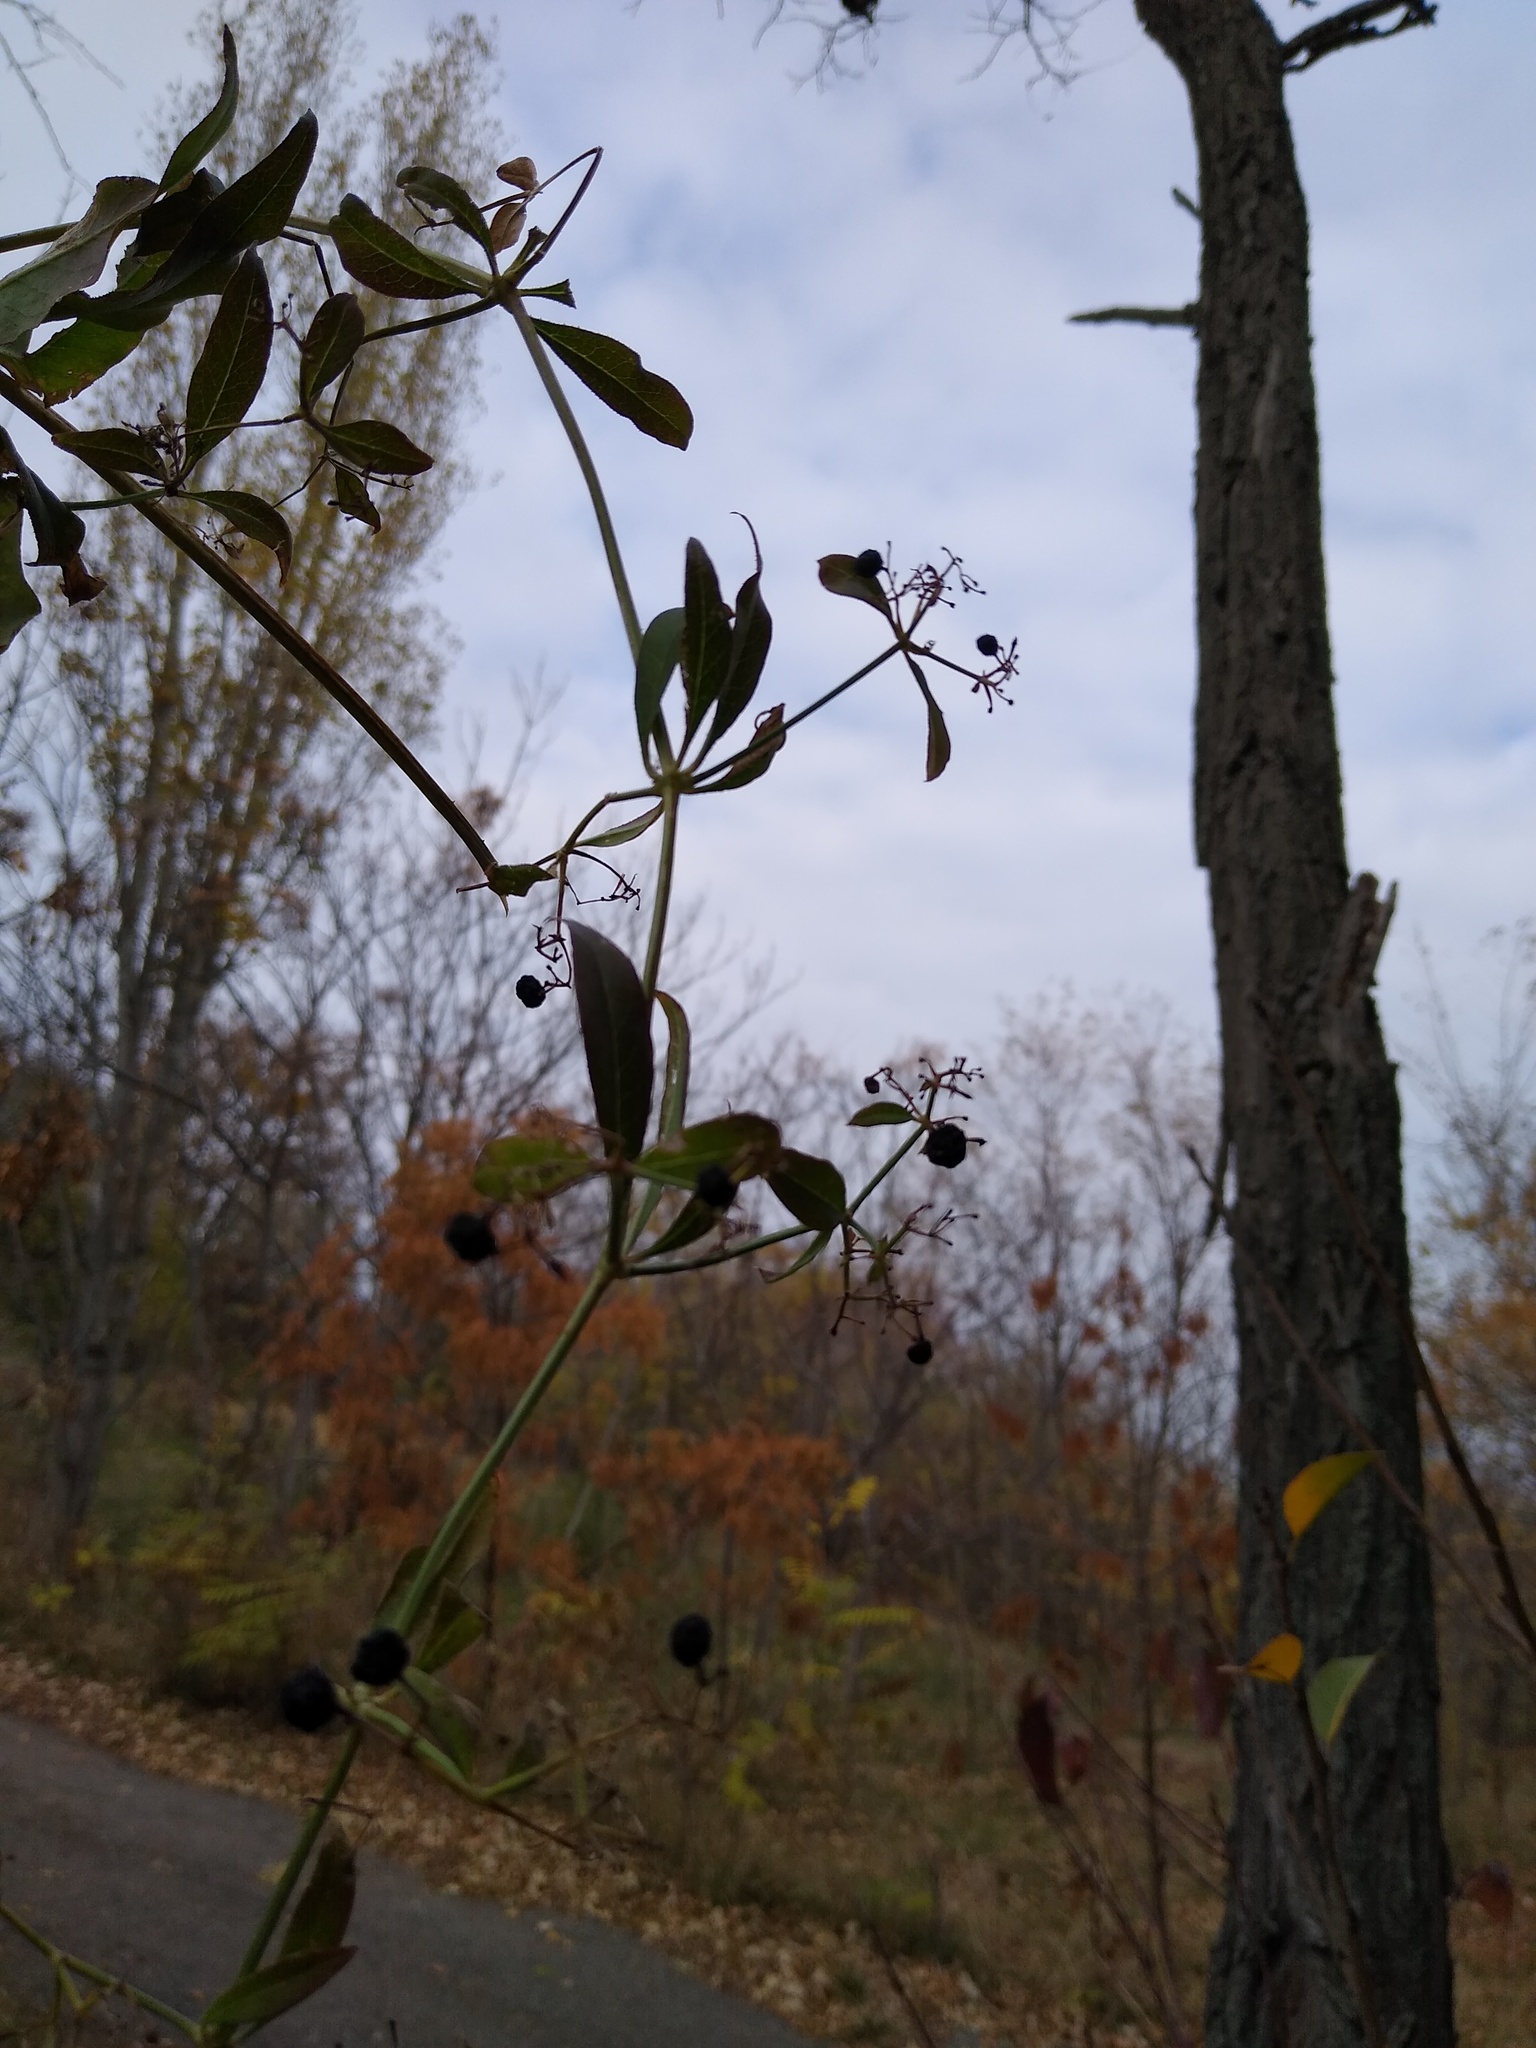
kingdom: Plantae
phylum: Tracheophyta
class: Magnoliopsida
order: Gentianales
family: Rubiaceae
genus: Rubia
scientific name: Rubia tinctorum
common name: Dyer's madder
